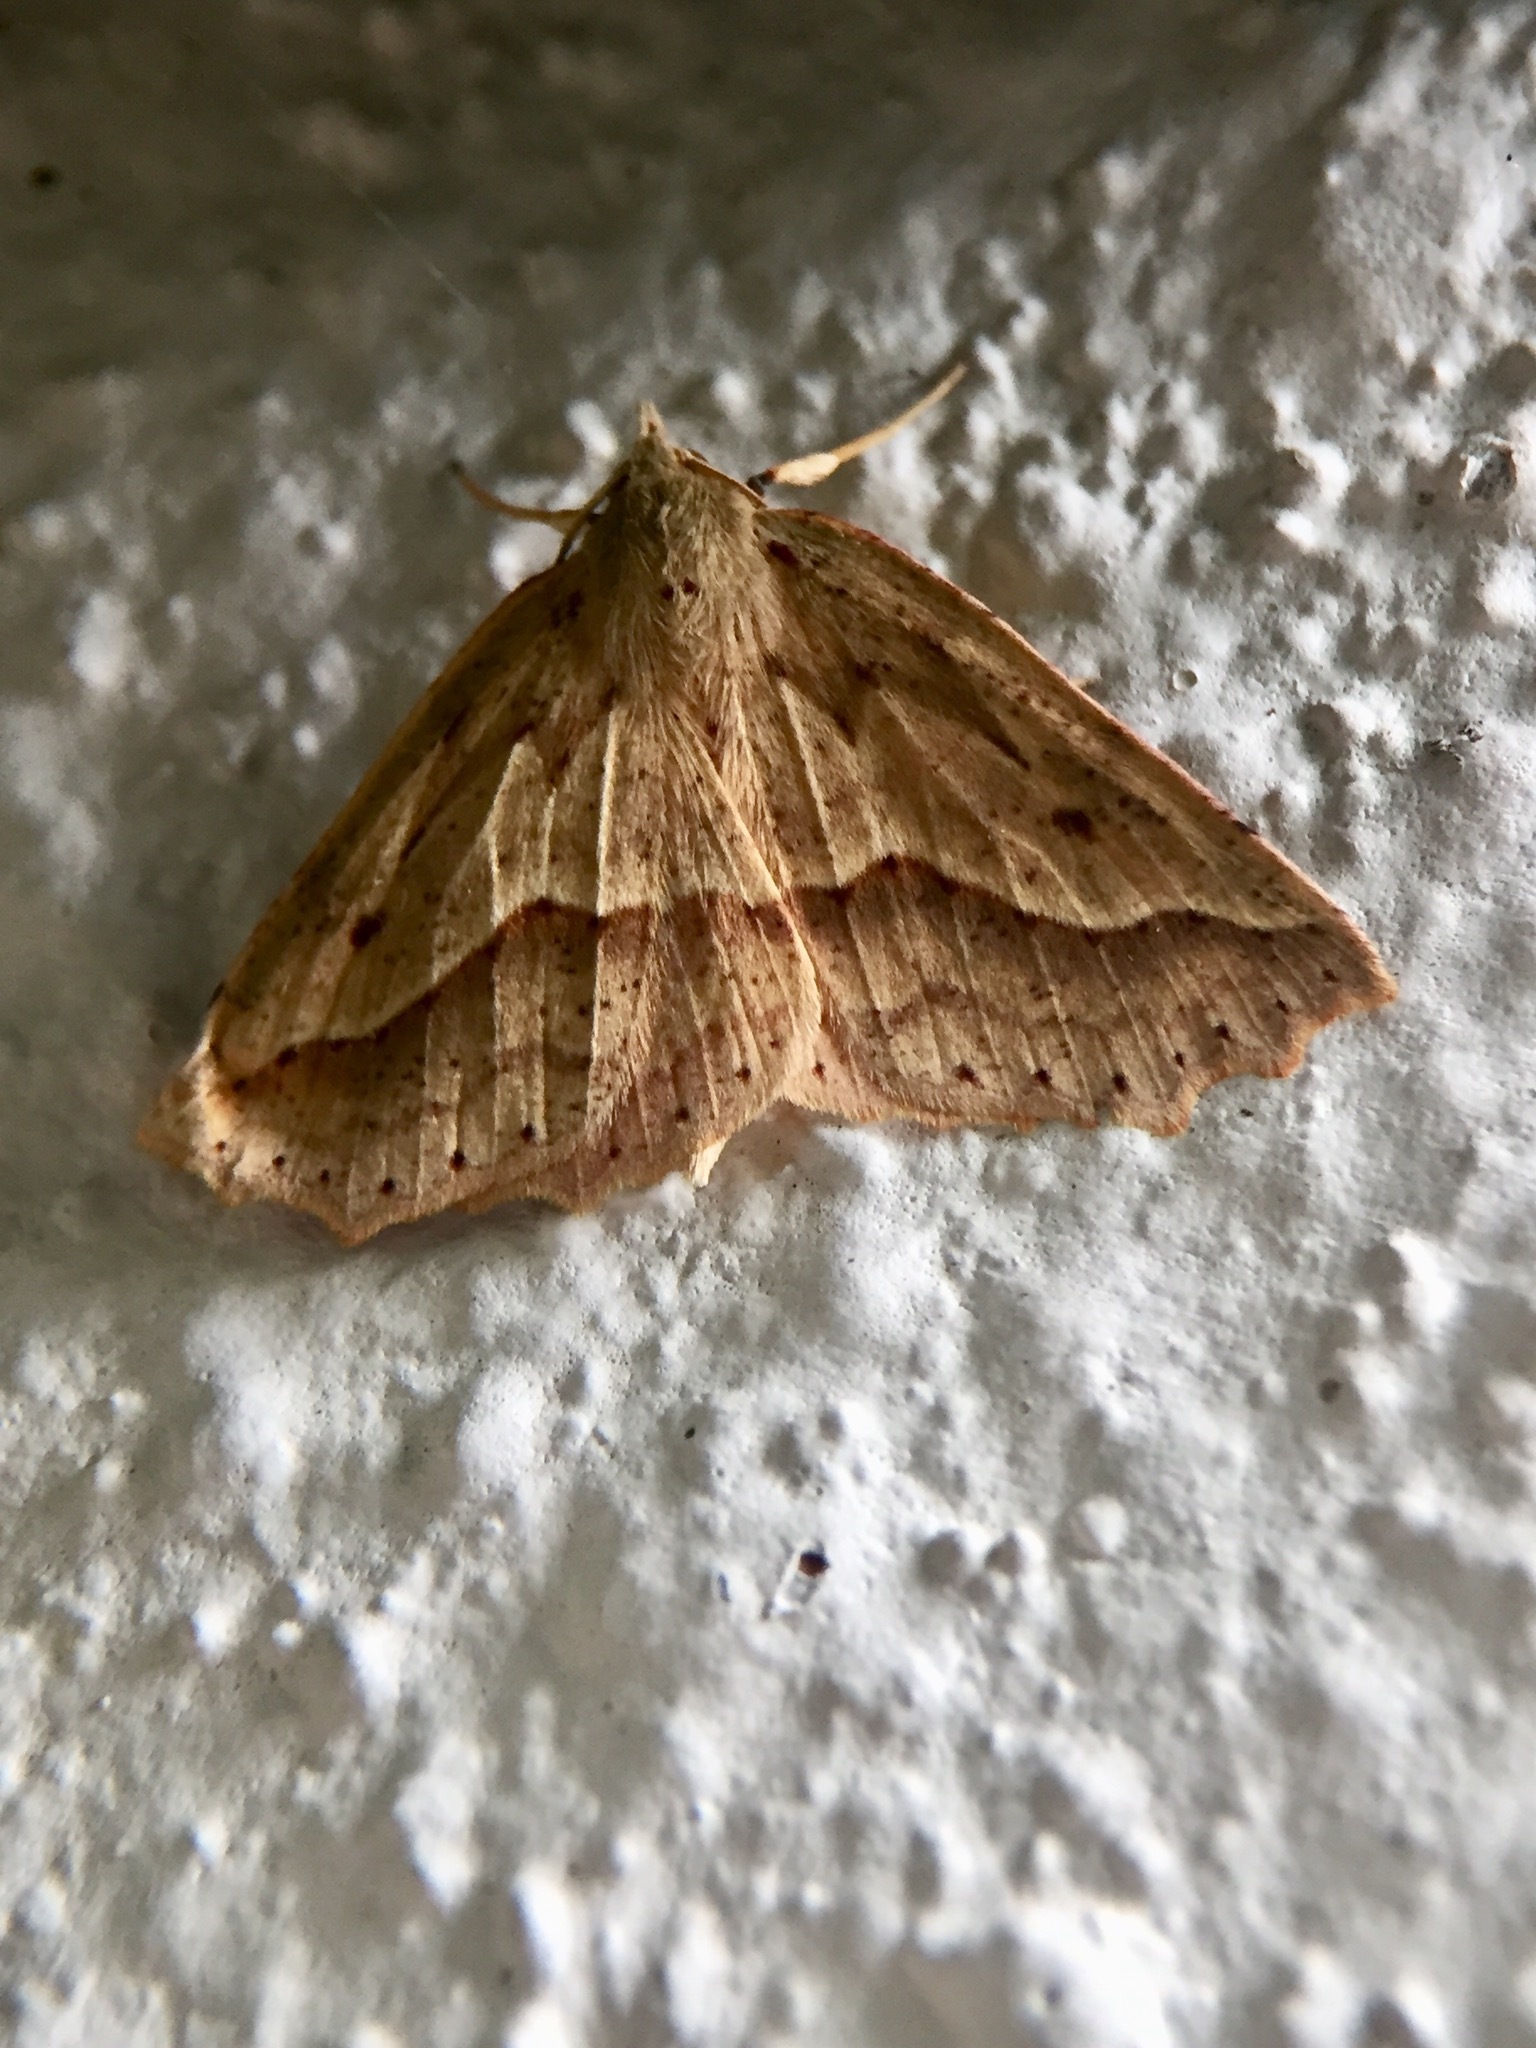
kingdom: Animalia
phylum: Arthropoda
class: Insecta
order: Lepidoptera
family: Geometridae
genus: Ischalis
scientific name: Ischalis variabilis
